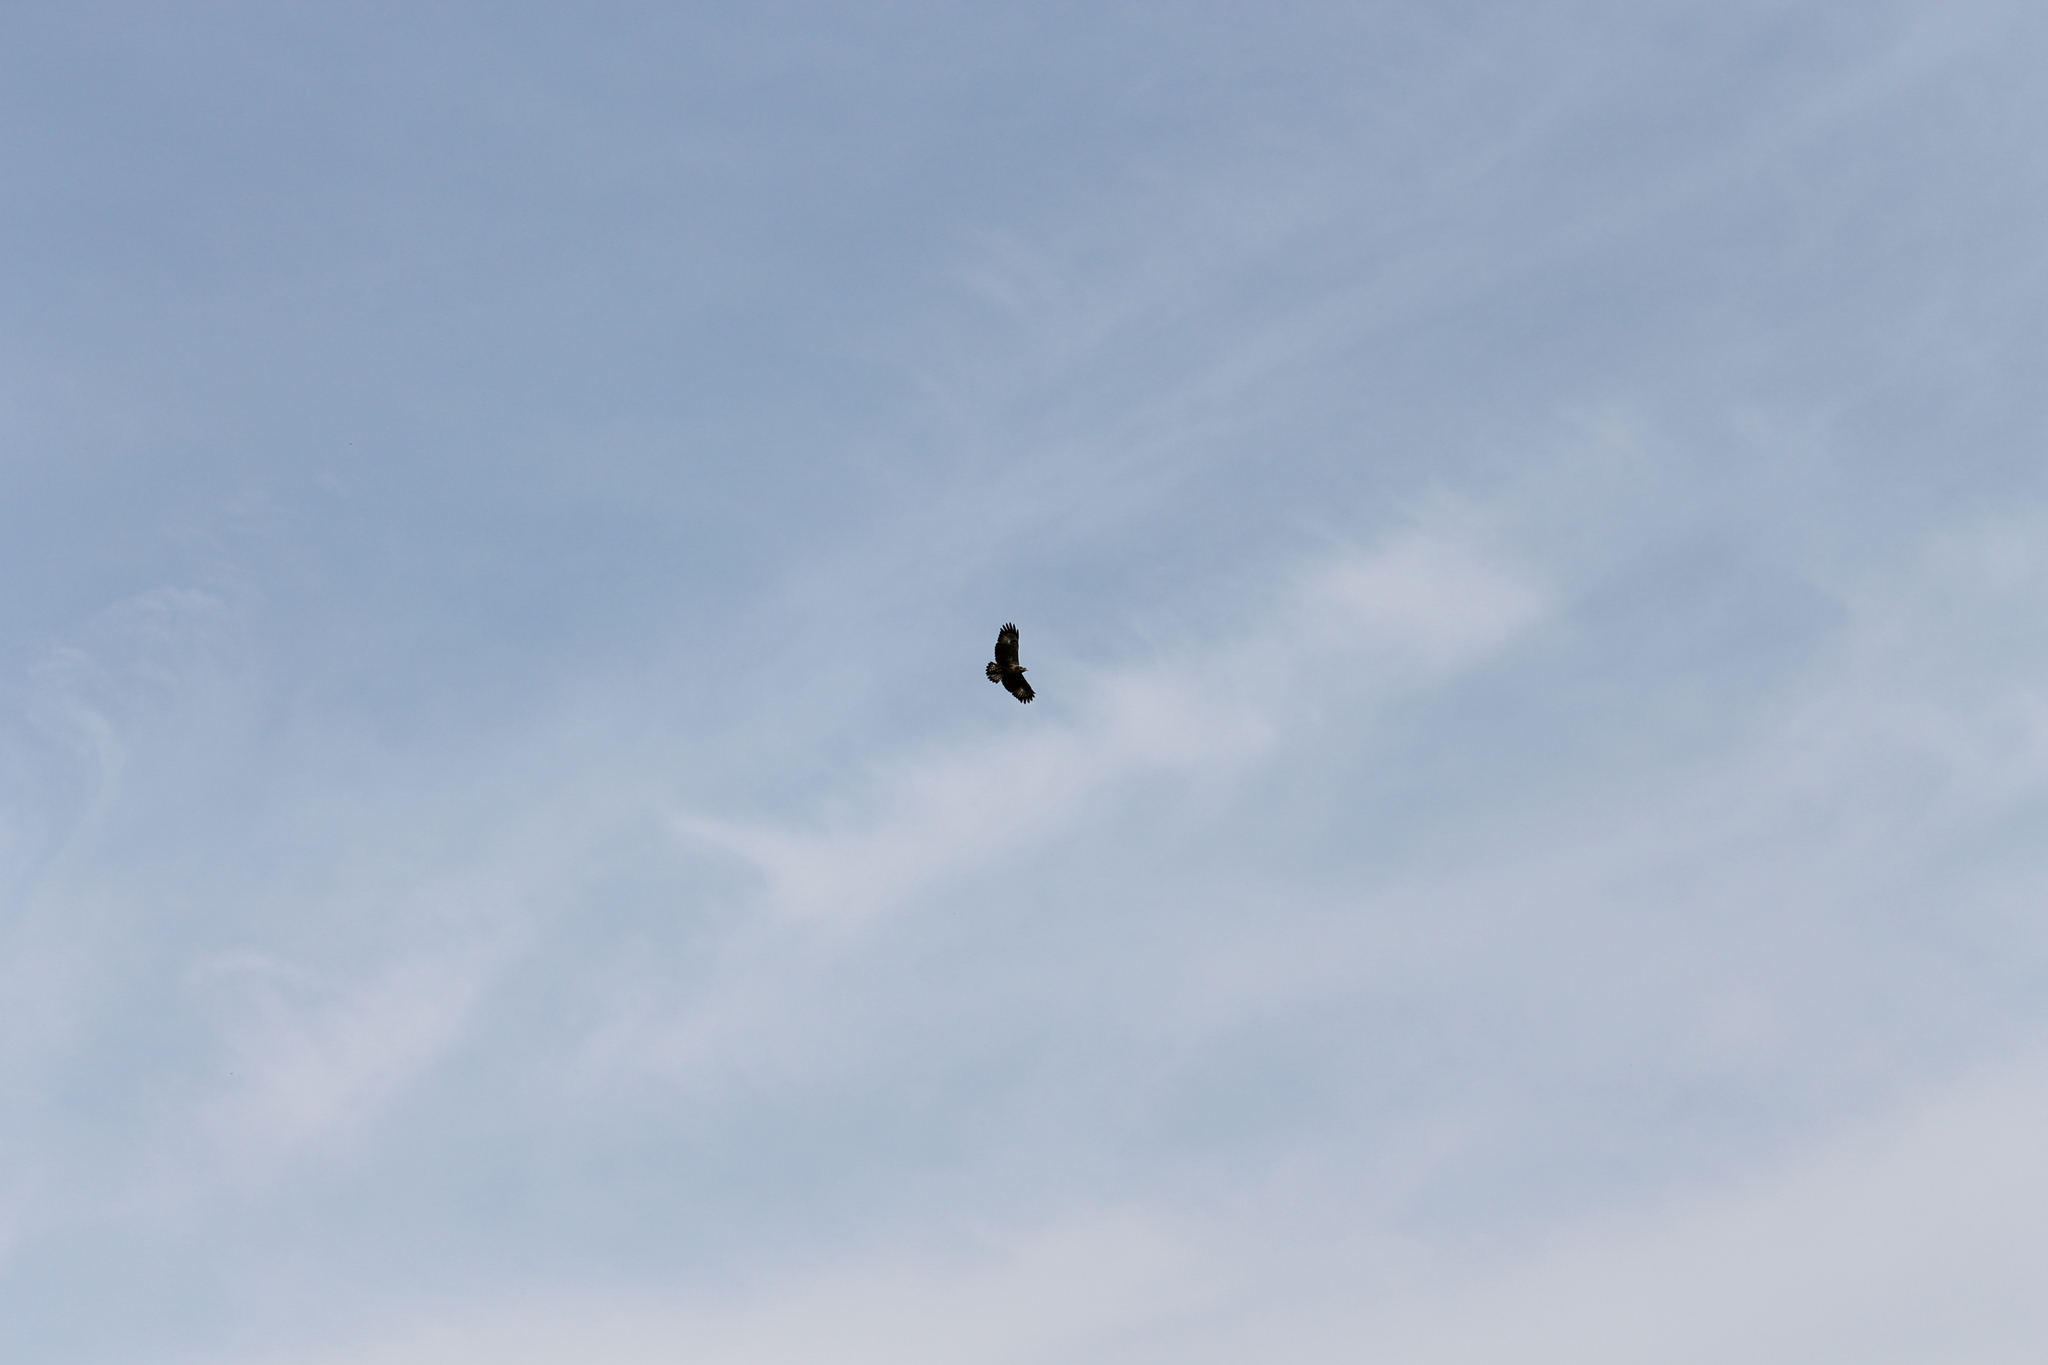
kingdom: Animalia
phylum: Chordata
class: Aves
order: Accipitriformes
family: Accipitridae
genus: Buteogallus
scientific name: Buteogallus anthracinus
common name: Common black hawk
